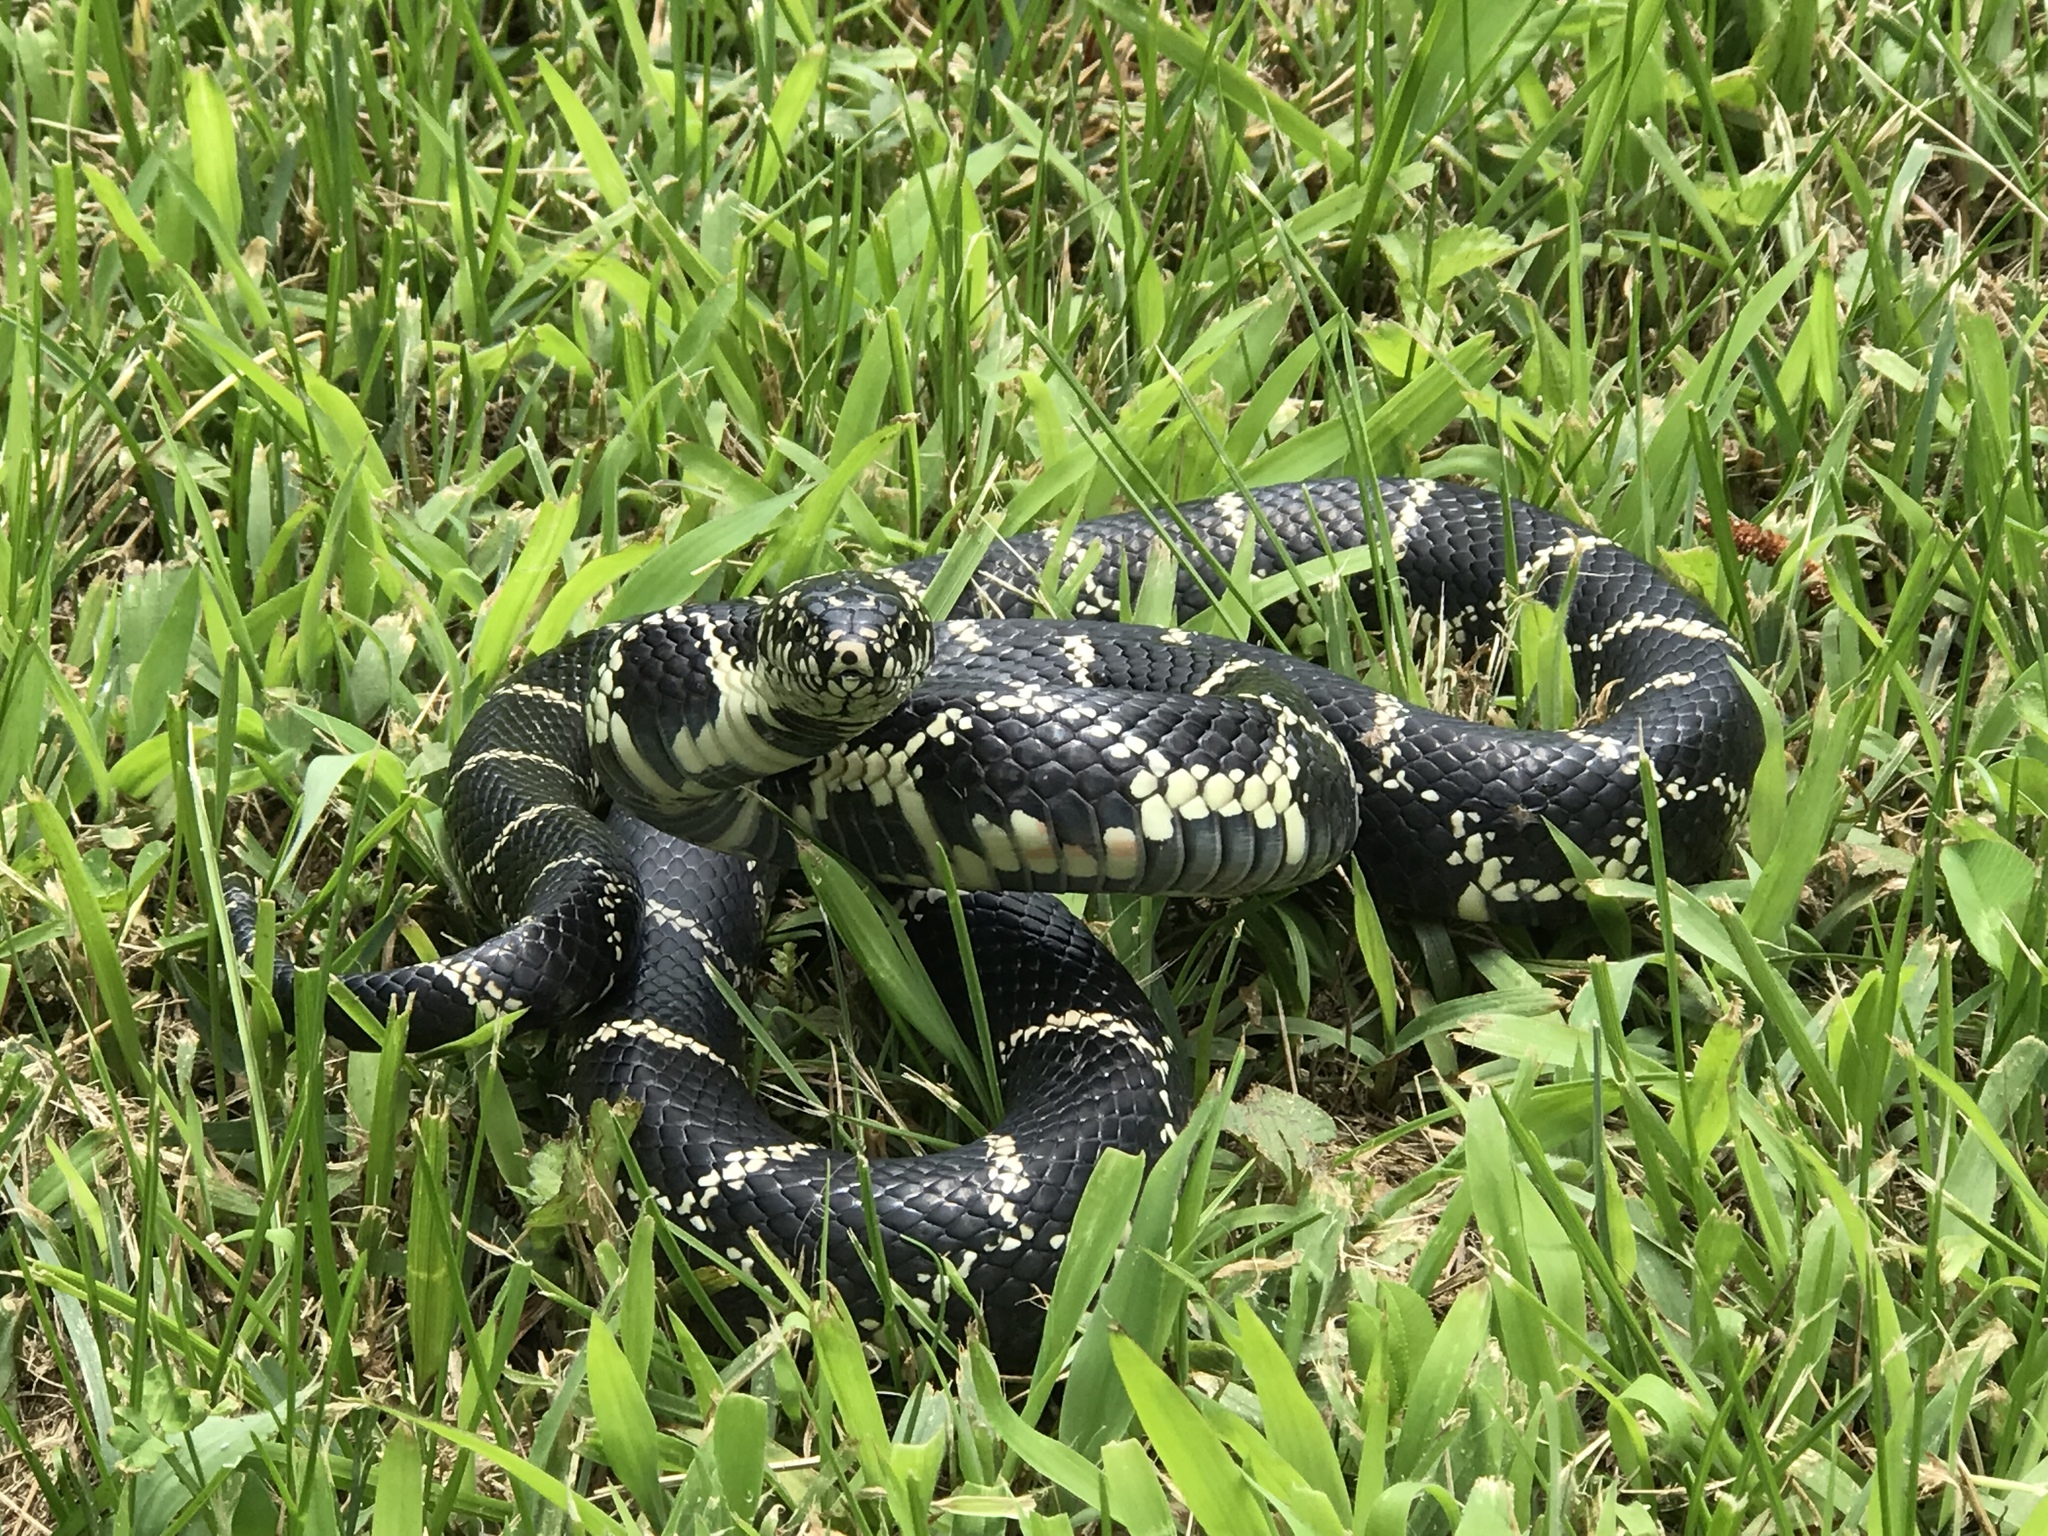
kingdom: Animalia
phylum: Chordata
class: Squamata
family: Colubridae
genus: Lampropeltis
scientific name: Lampropeltis getula
